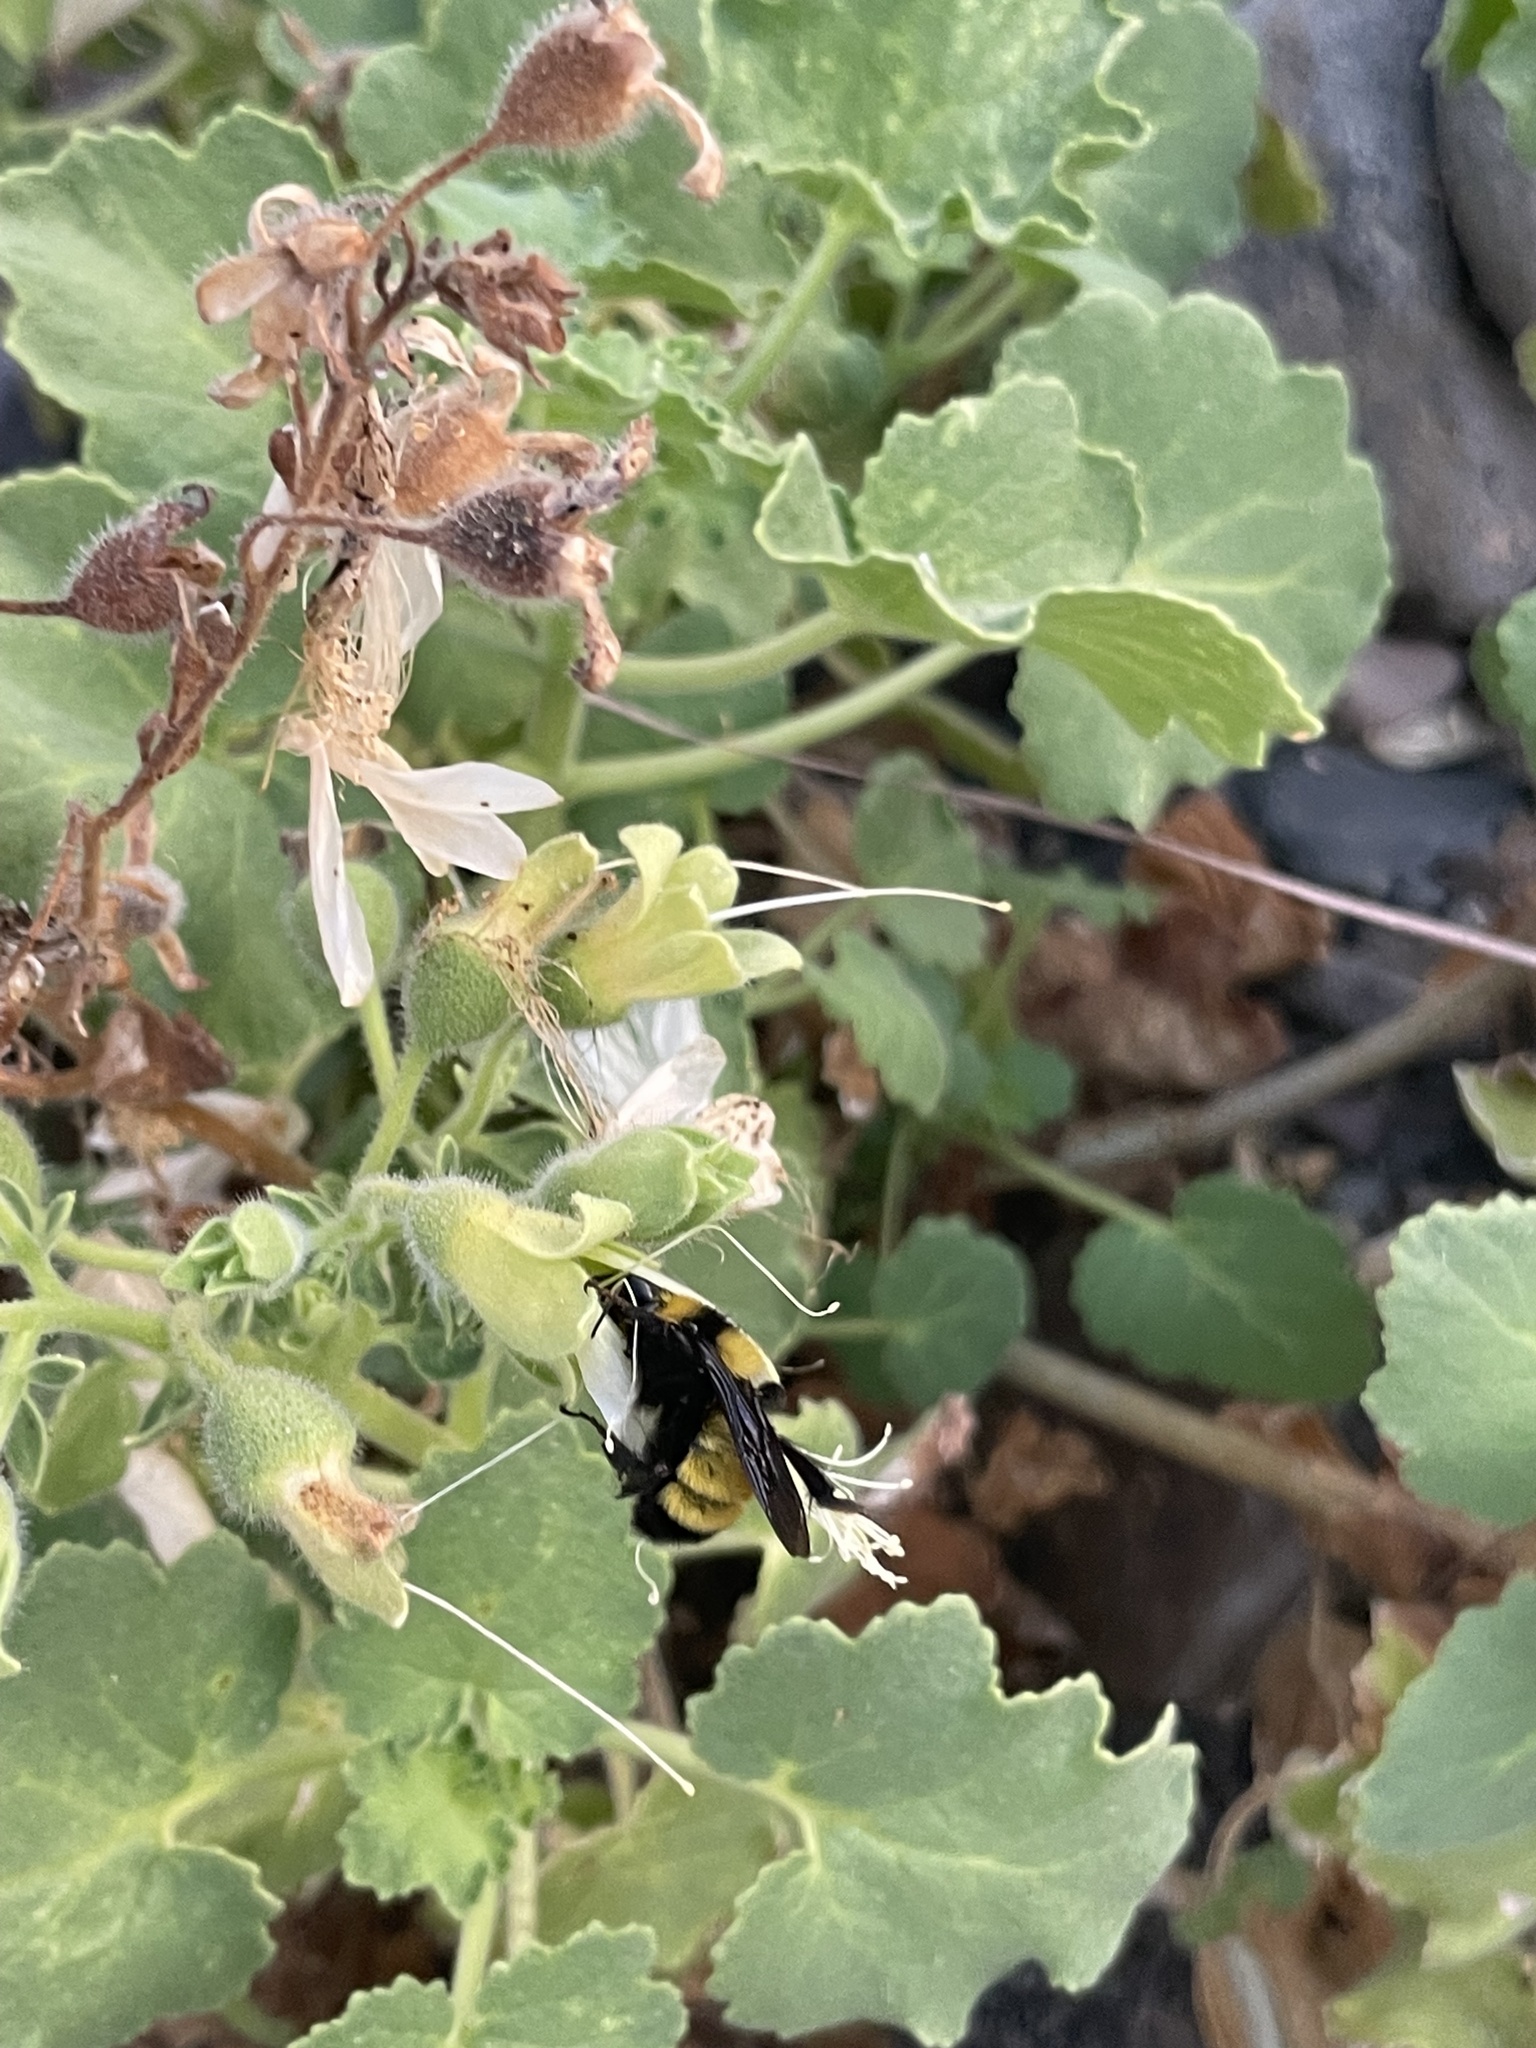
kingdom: Animalia
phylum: Arthropoda
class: Insecta
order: Hymenoptera
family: Apidae
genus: Bombus
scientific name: Bombus sonorus
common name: Sonoran bumble bee
